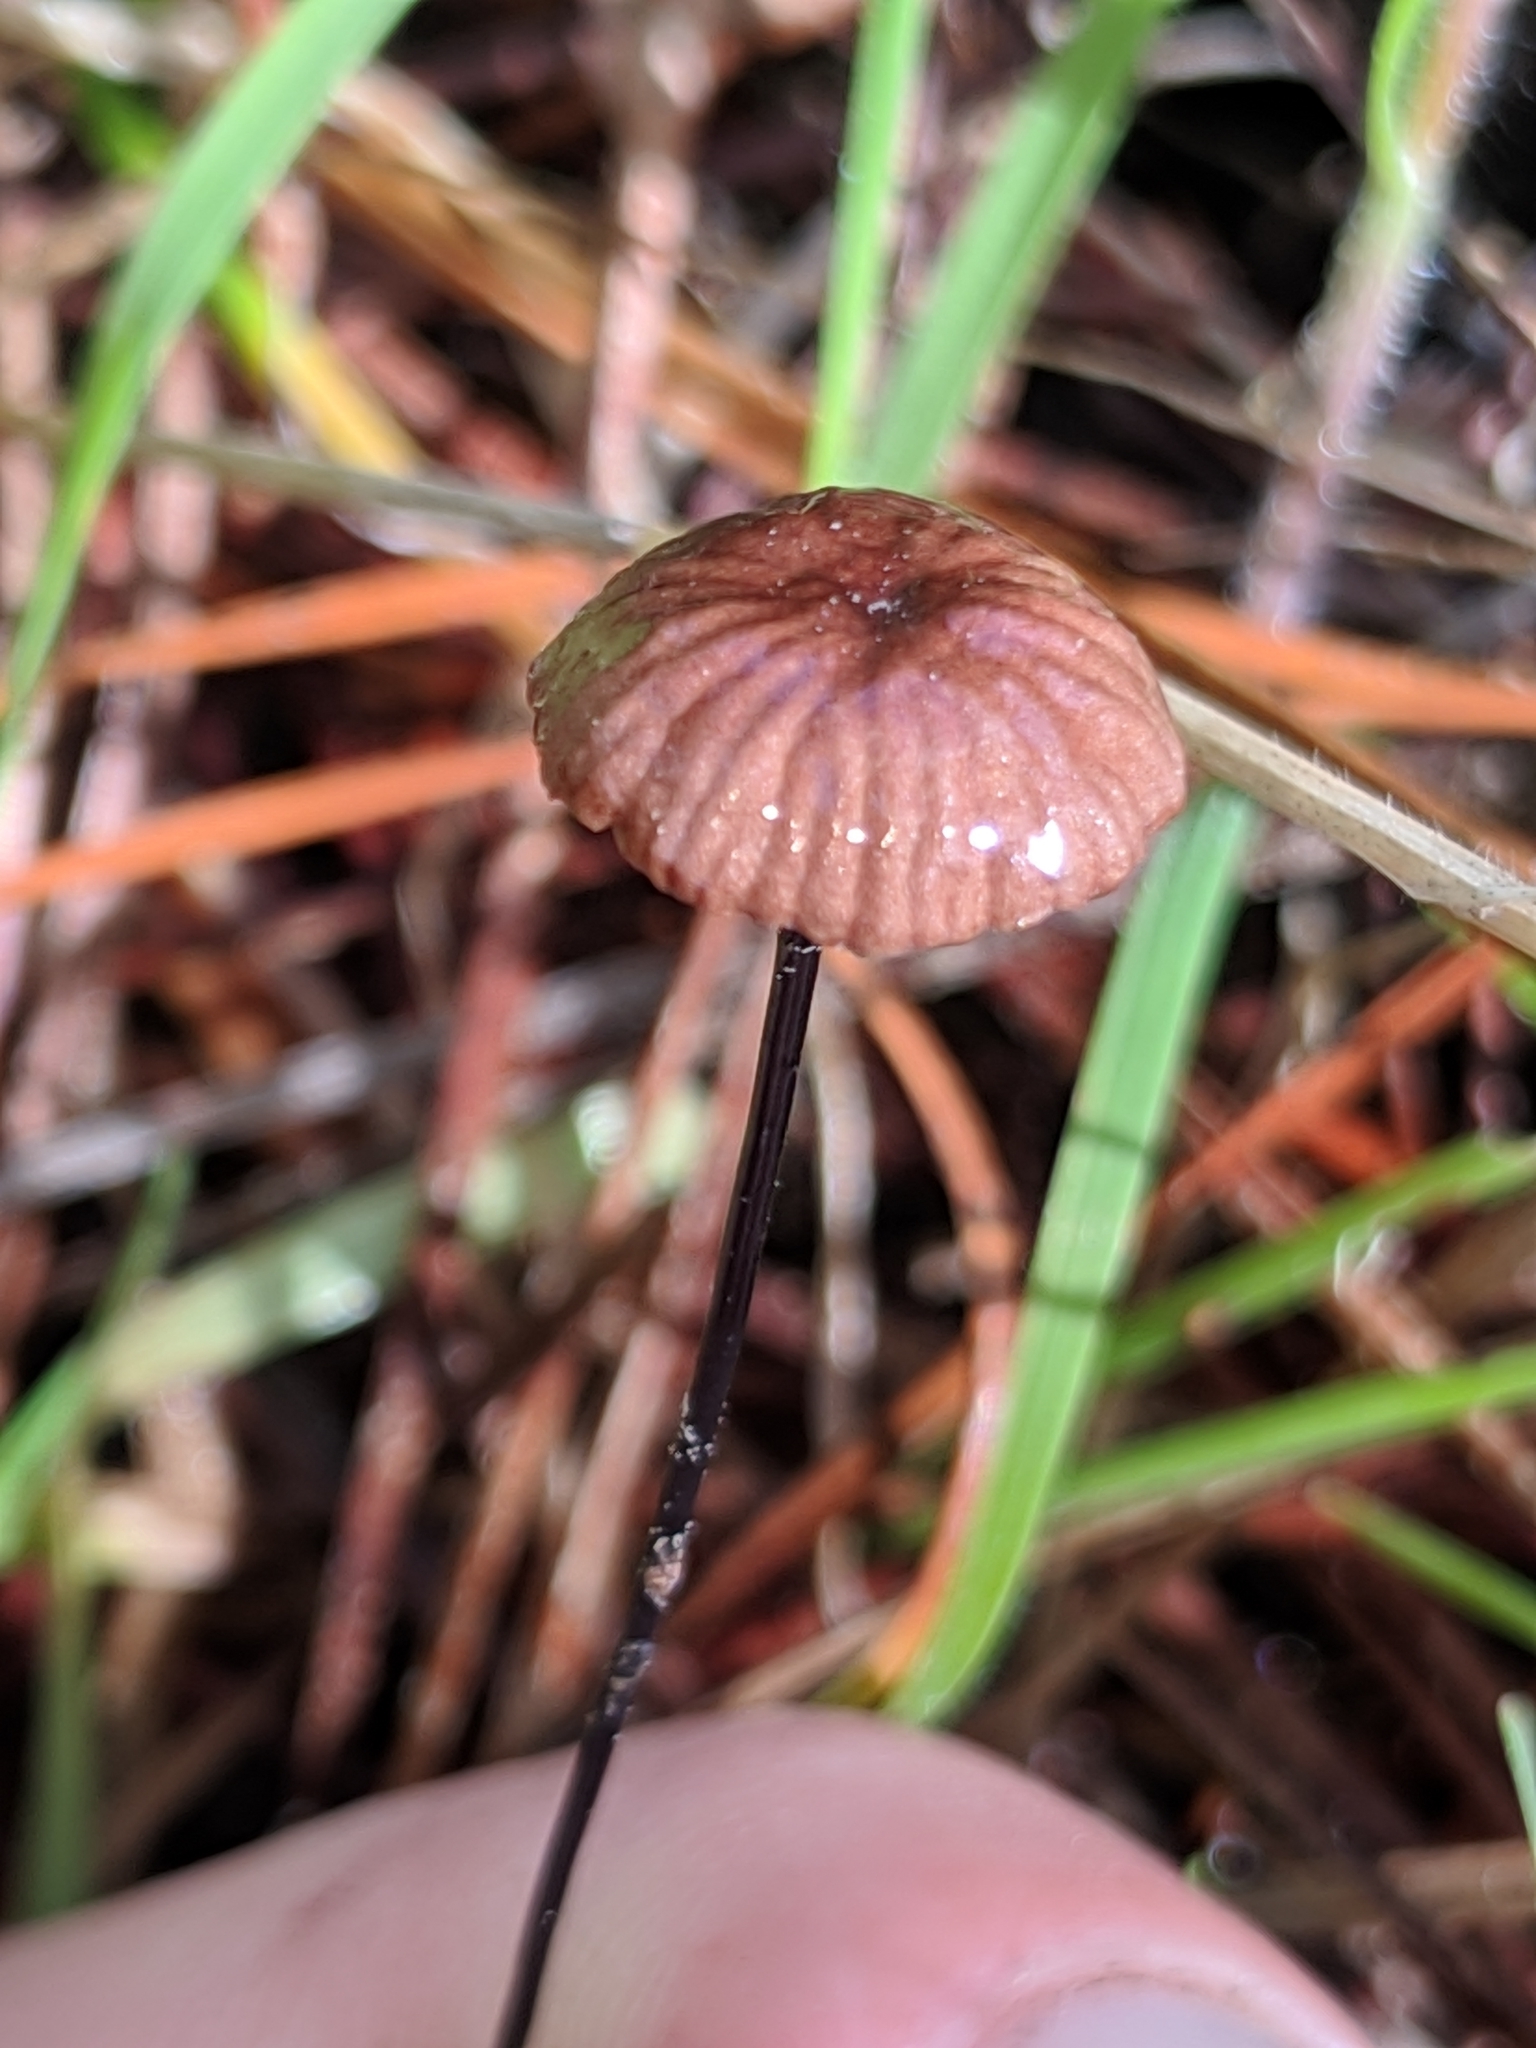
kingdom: Fungi
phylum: Basidiomycota
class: Agaricomycetes
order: Agaricales
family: Omphalotaceae
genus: Gymnopus
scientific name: Gymnopus androsaceus
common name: Horse-hair fungus
